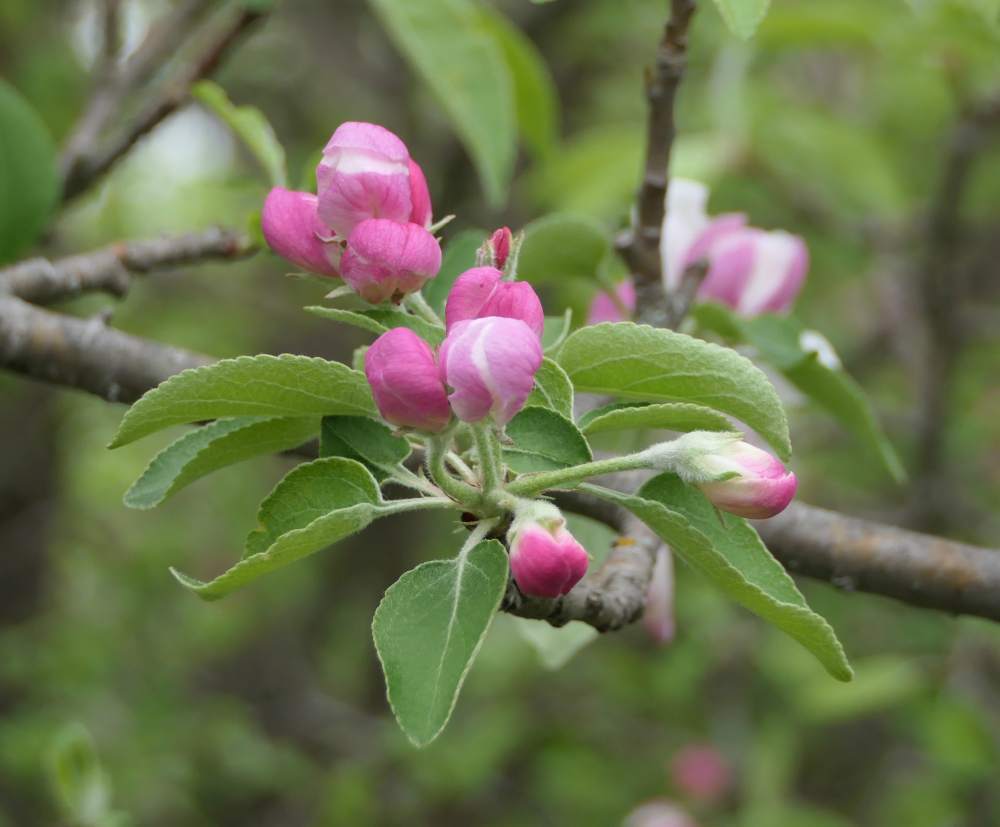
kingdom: Plantae
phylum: Tracheophyta
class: Magnoliopsida
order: Rosales
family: Rosaceae
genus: Malus
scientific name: Malus domestica
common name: Apple
